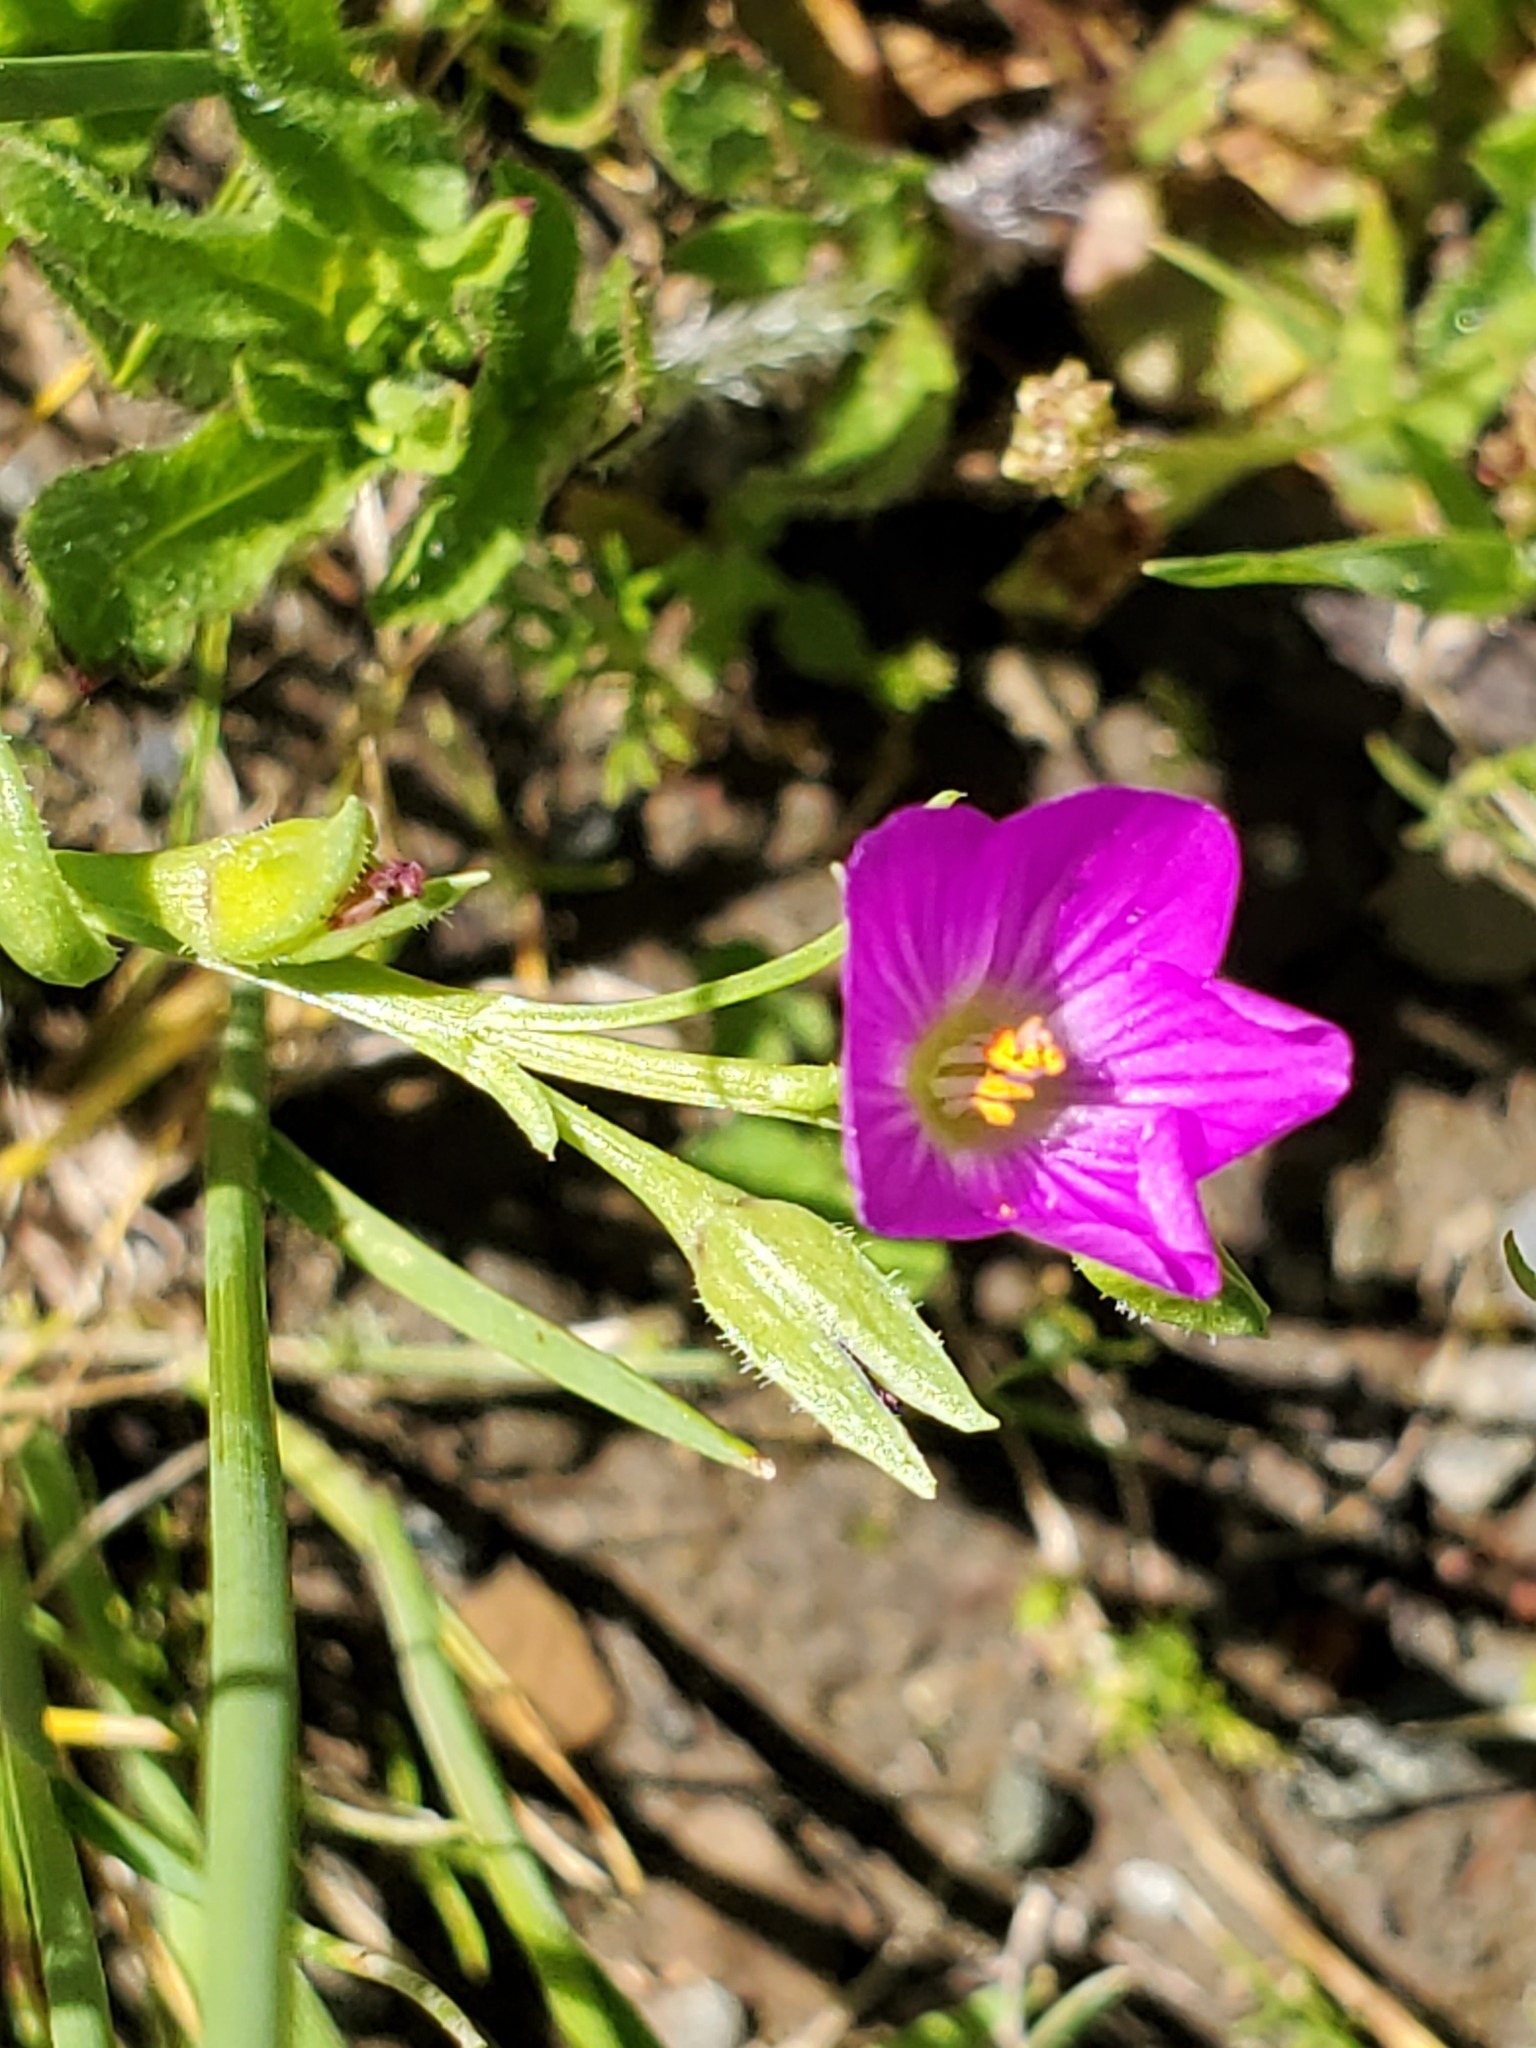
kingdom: Plantae
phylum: Tracheophyta
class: Magnoliopsida
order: Caryophyllales
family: Montiaceae
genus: Calandrinia
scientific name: Calandrinia menziesii
